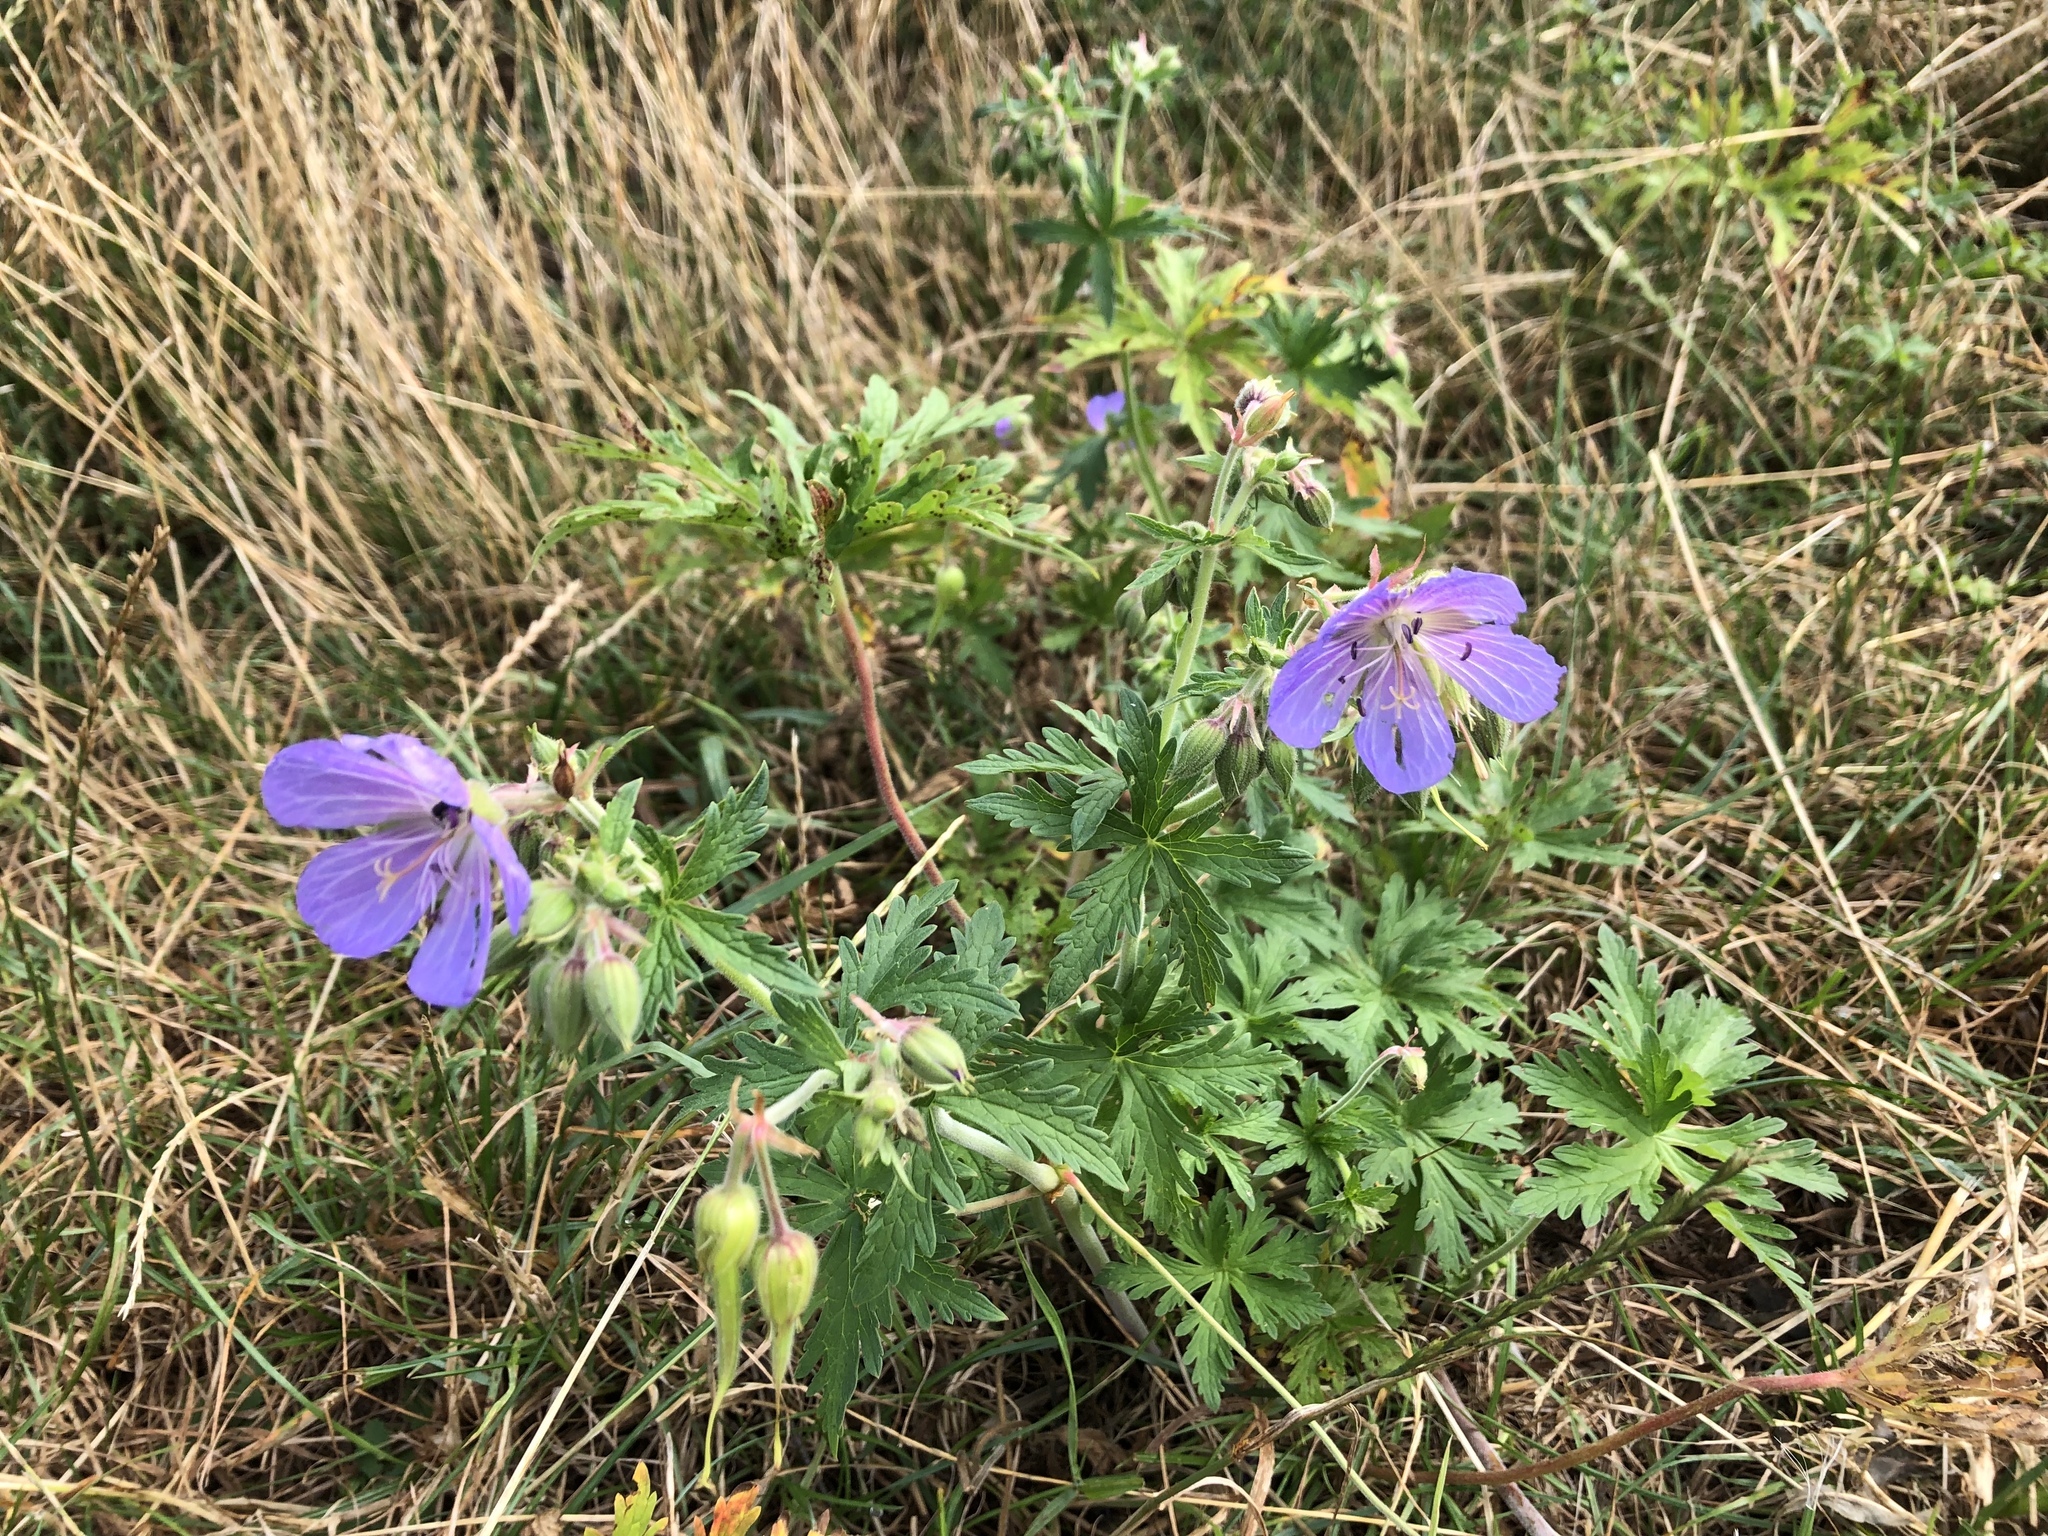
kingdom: Plantae
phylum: Tracheophyta
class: Magnoliopsida
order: Geraniales
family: Geraniaceae
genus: Geranium
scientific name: Geranium pratense
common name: Meadow crane's-bill
